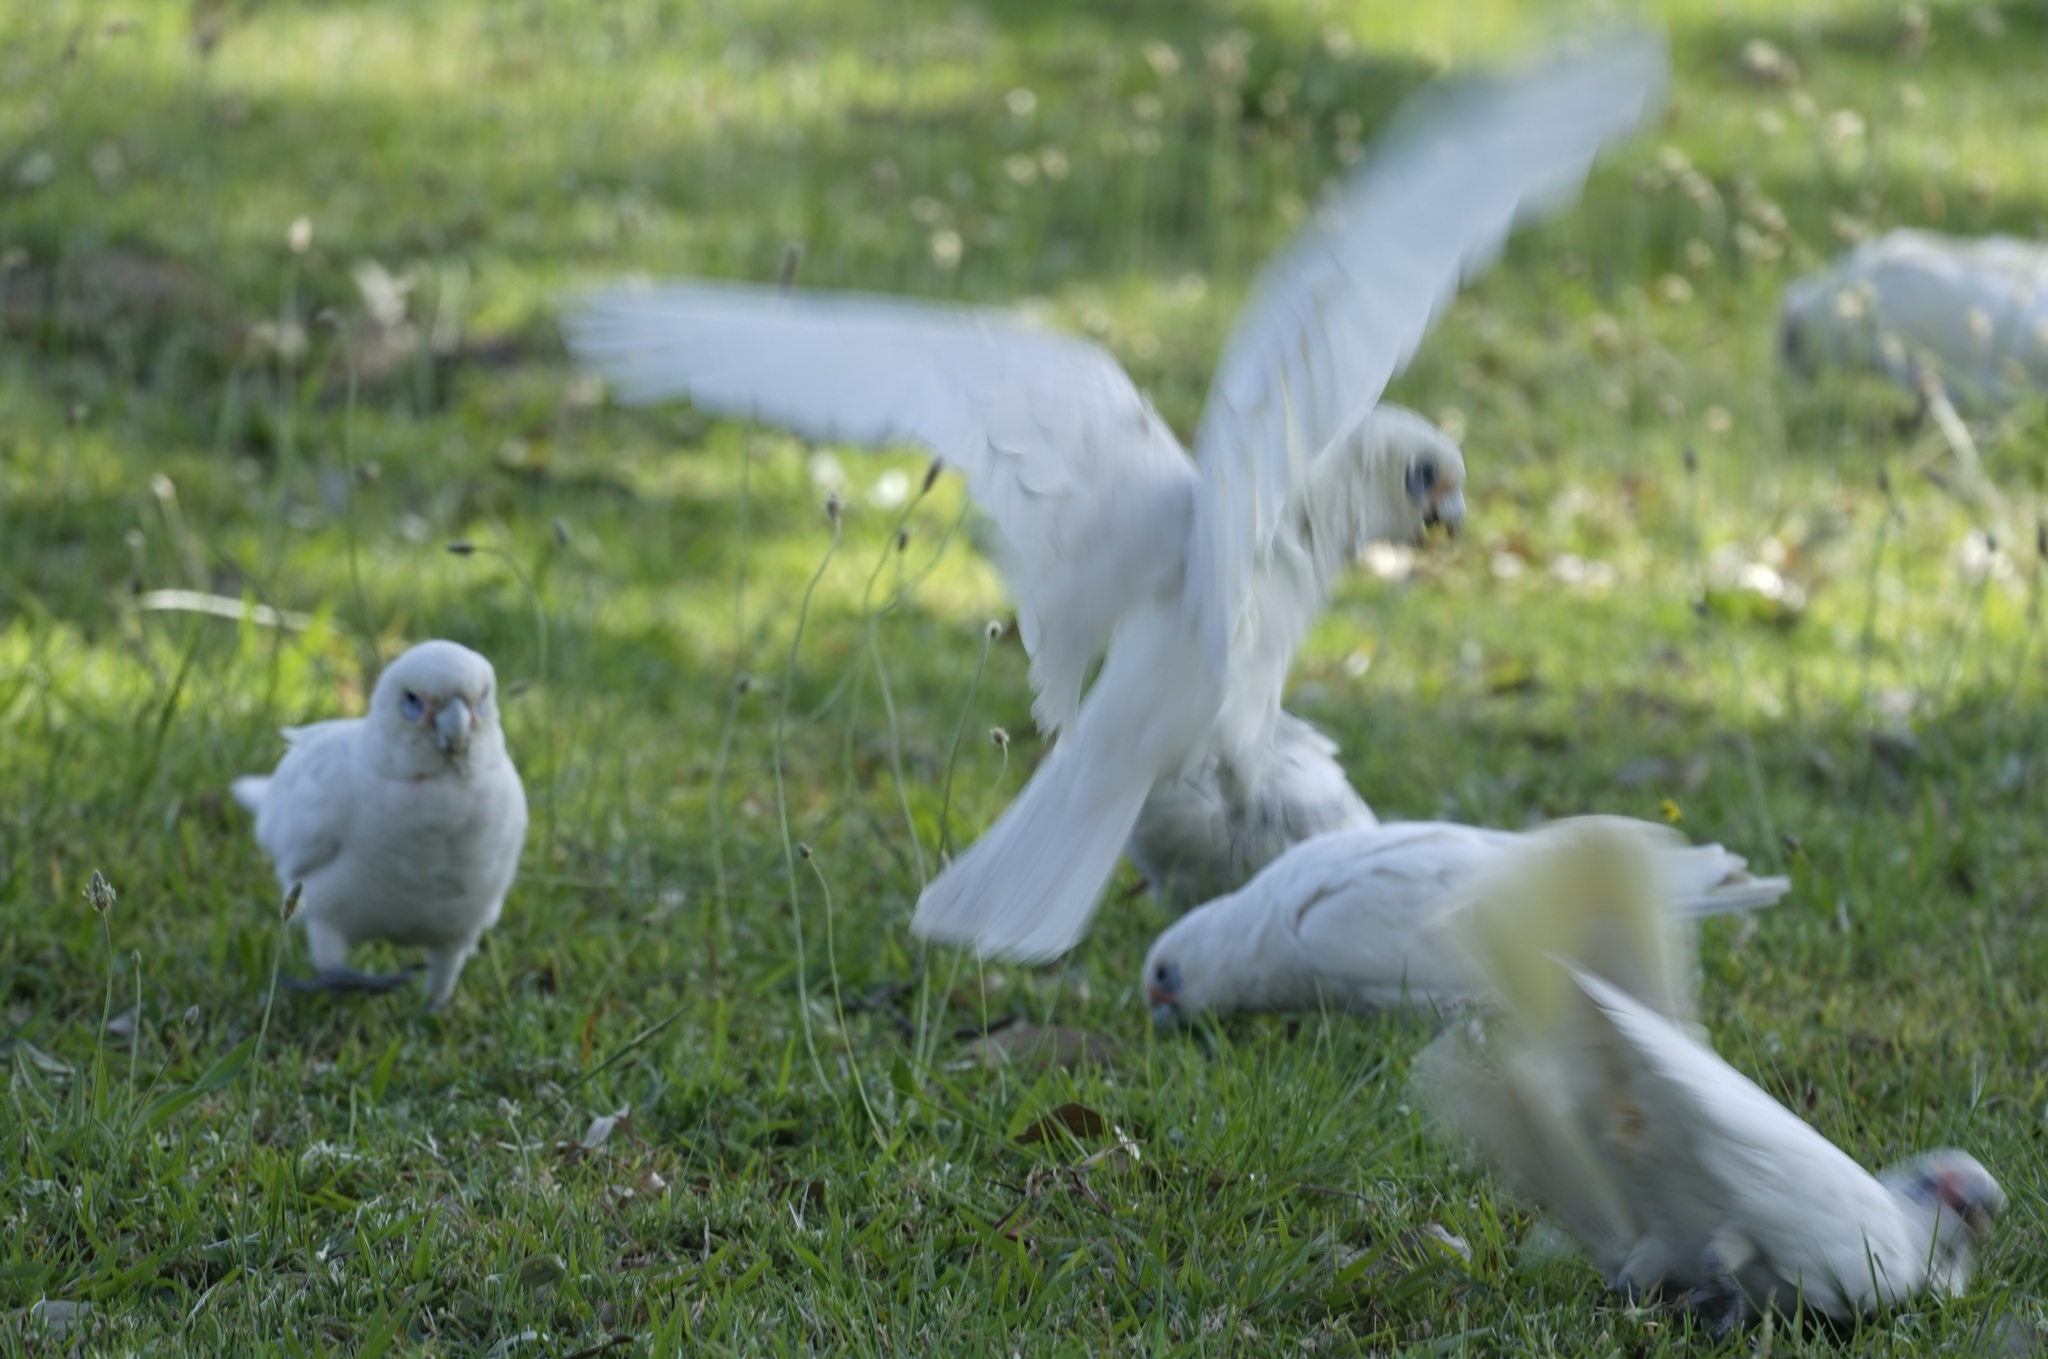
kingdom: Animalia
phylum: Chordata
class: Aves
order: Psittaciformes
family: Psittacidae
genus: Cacatua
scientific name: Cacatua sanguinea
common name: Little corella
